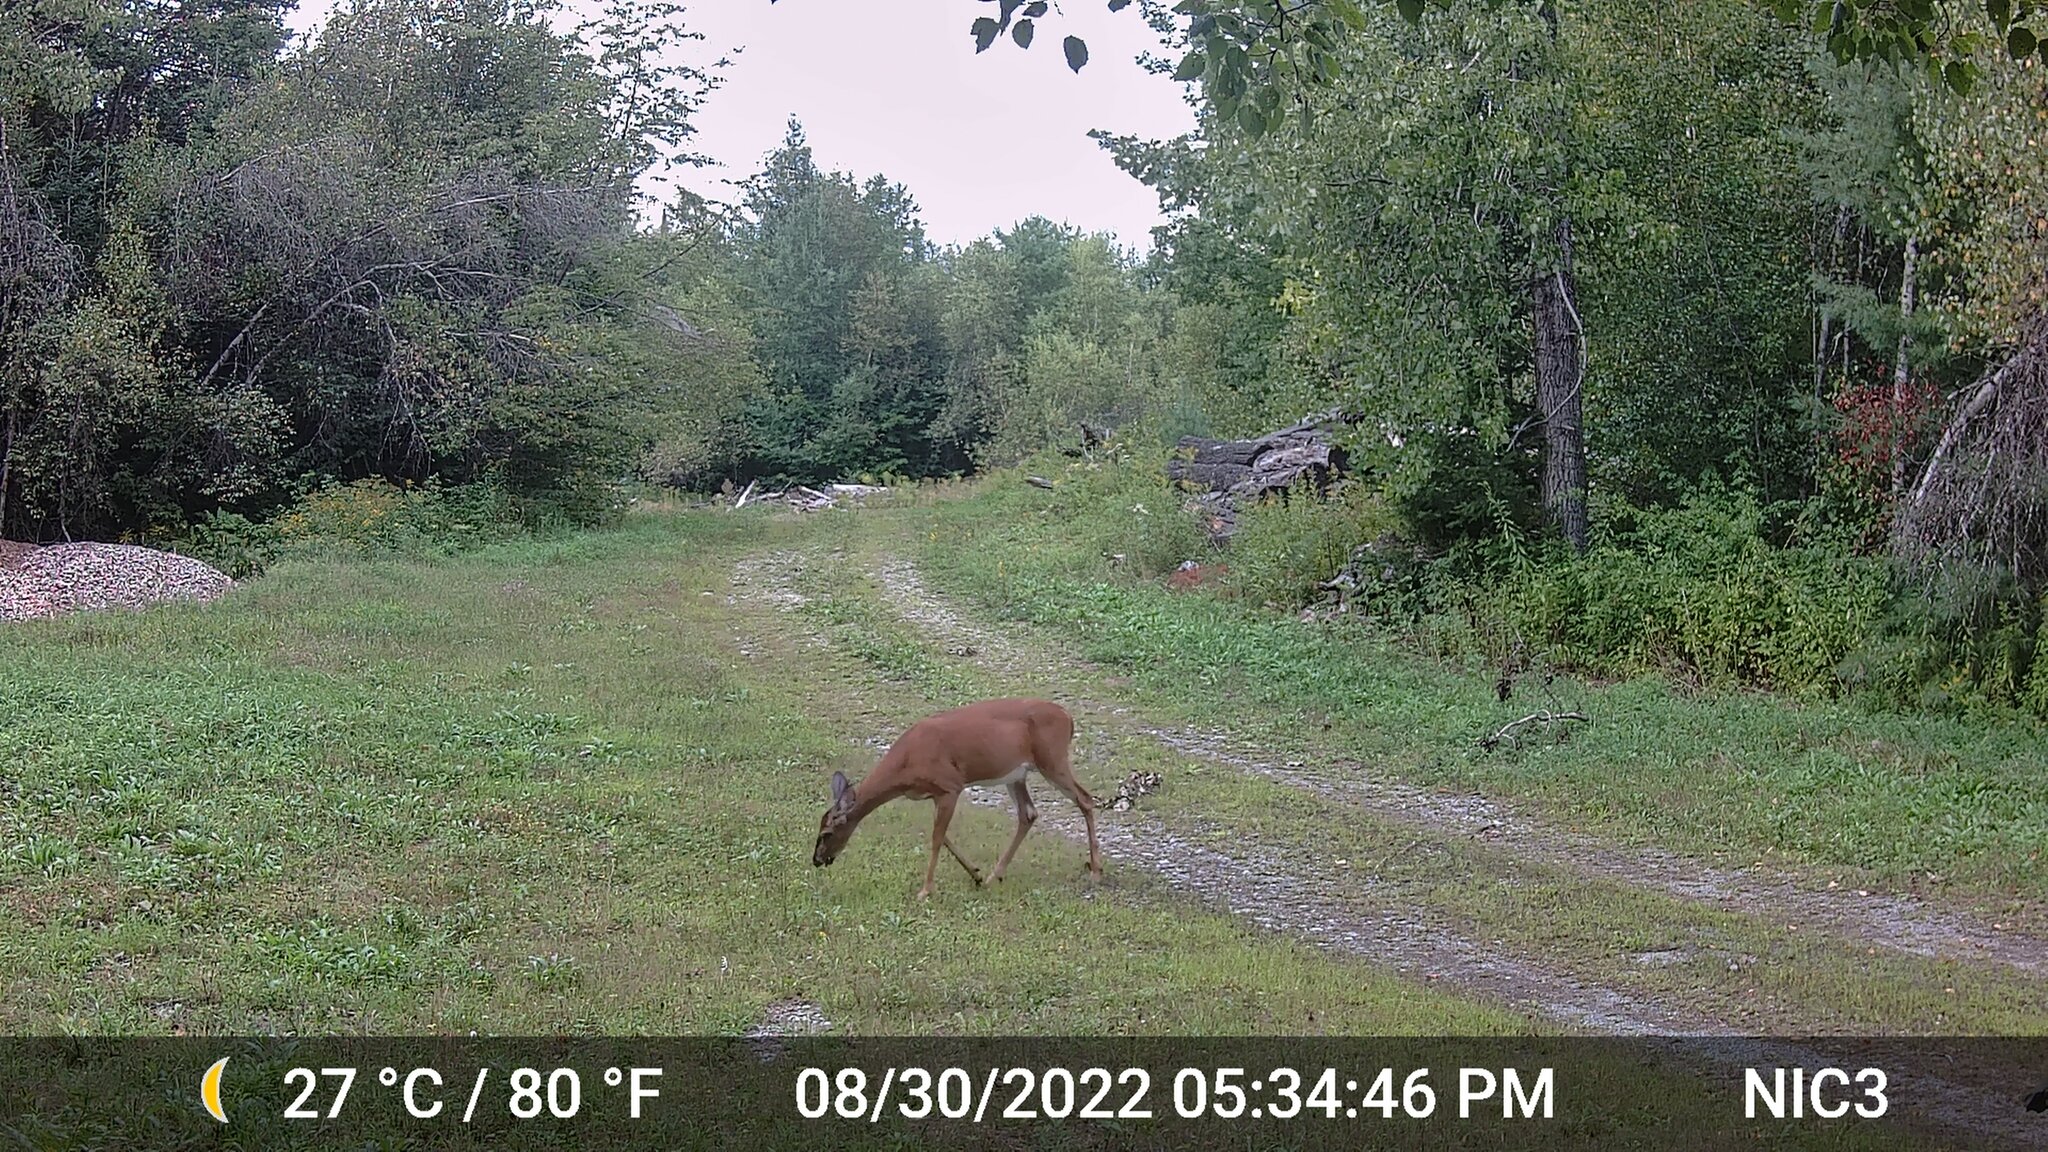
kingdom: Animalia
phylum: Chordata
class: Mammalia
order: Artiodactyla
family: Cervidae
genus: Odocoileus
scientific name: Odocoileus virginianus
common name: White-tailed deer
